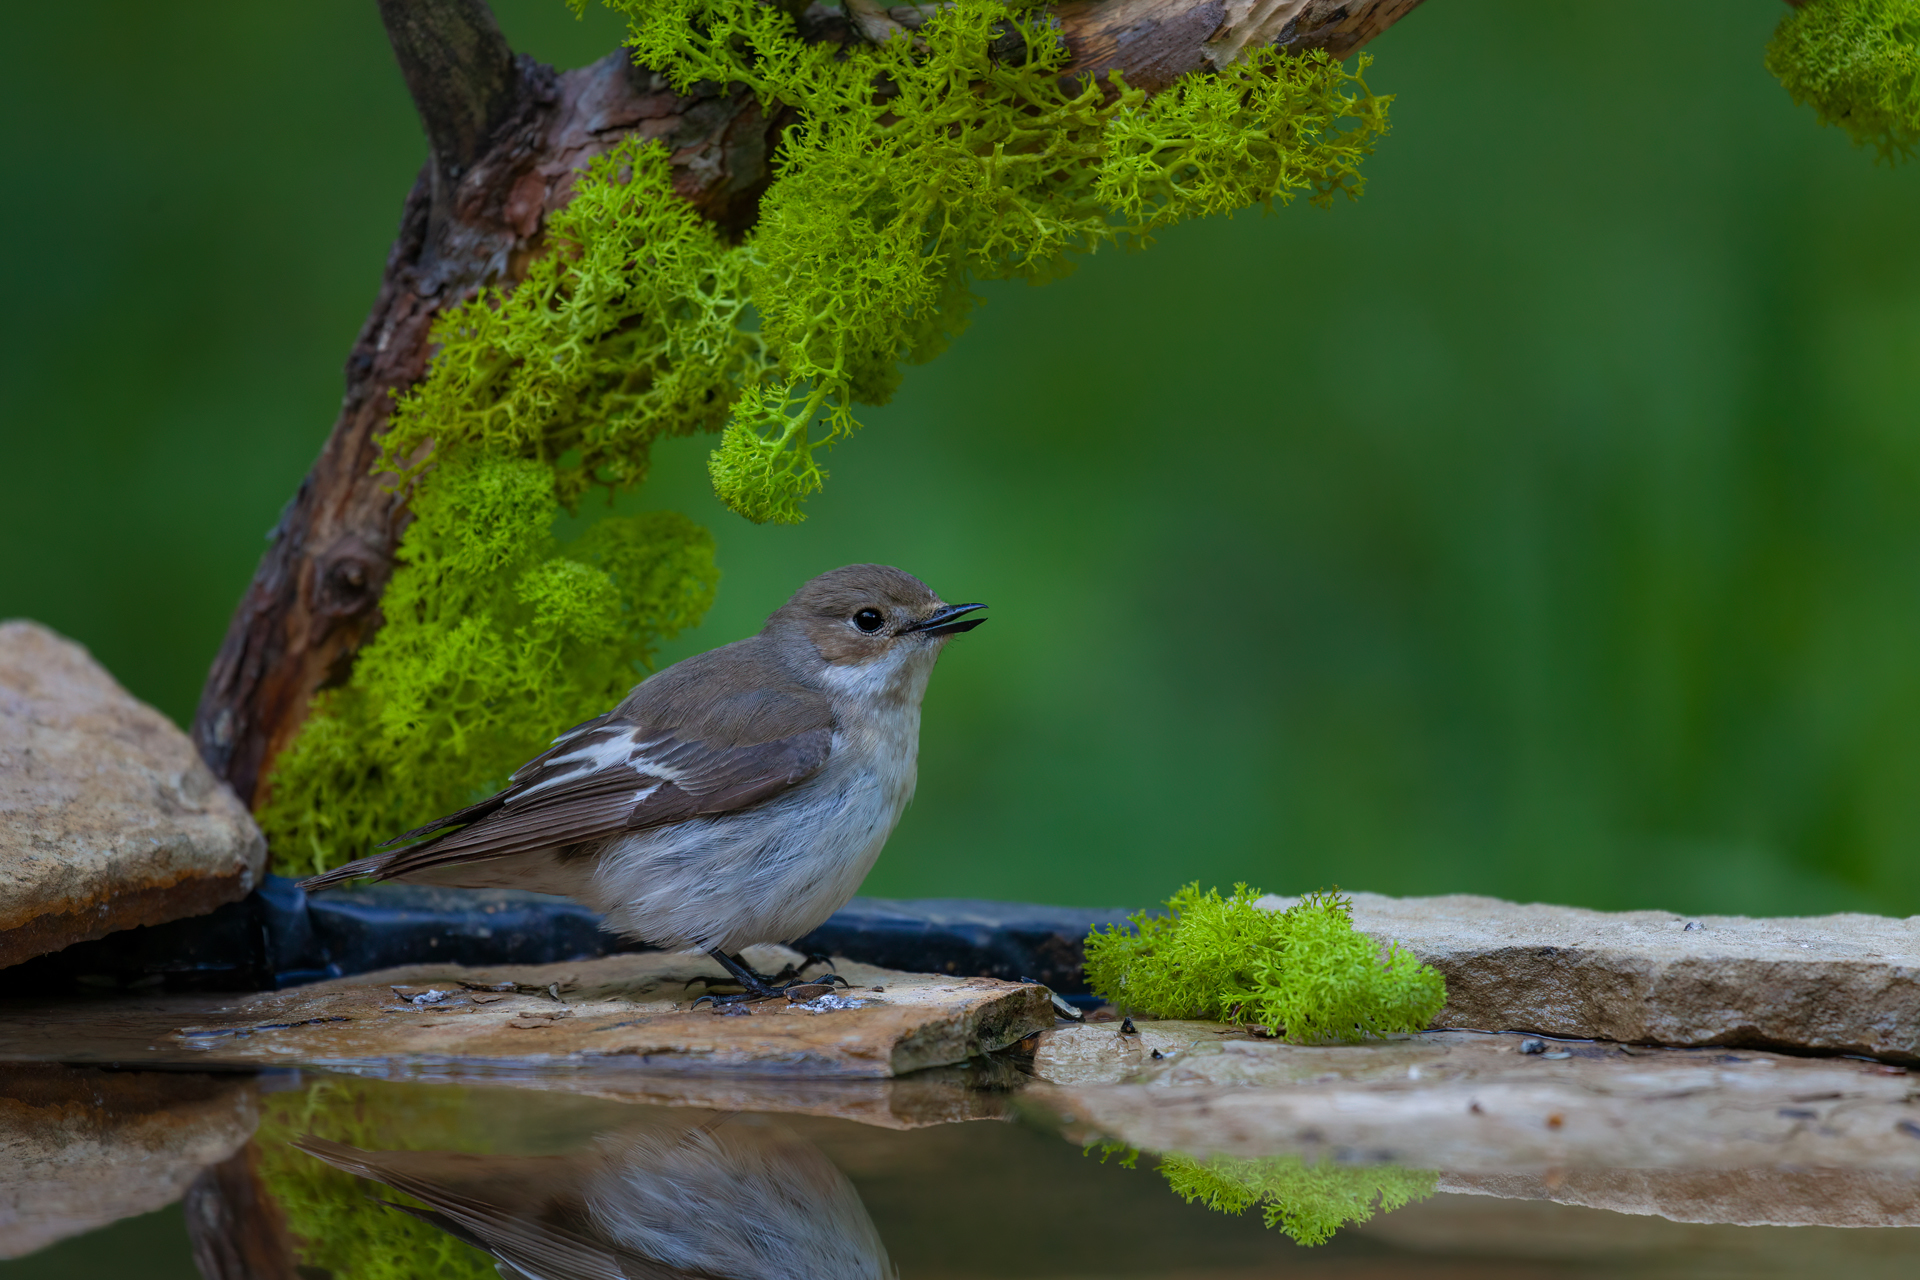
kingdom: Animalia
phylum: Chordata
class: Aves
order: Passeriformes
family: Muscicapidae
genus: Ficedula
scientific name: Ficedula hypoleuca
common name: European pied flycatcher
